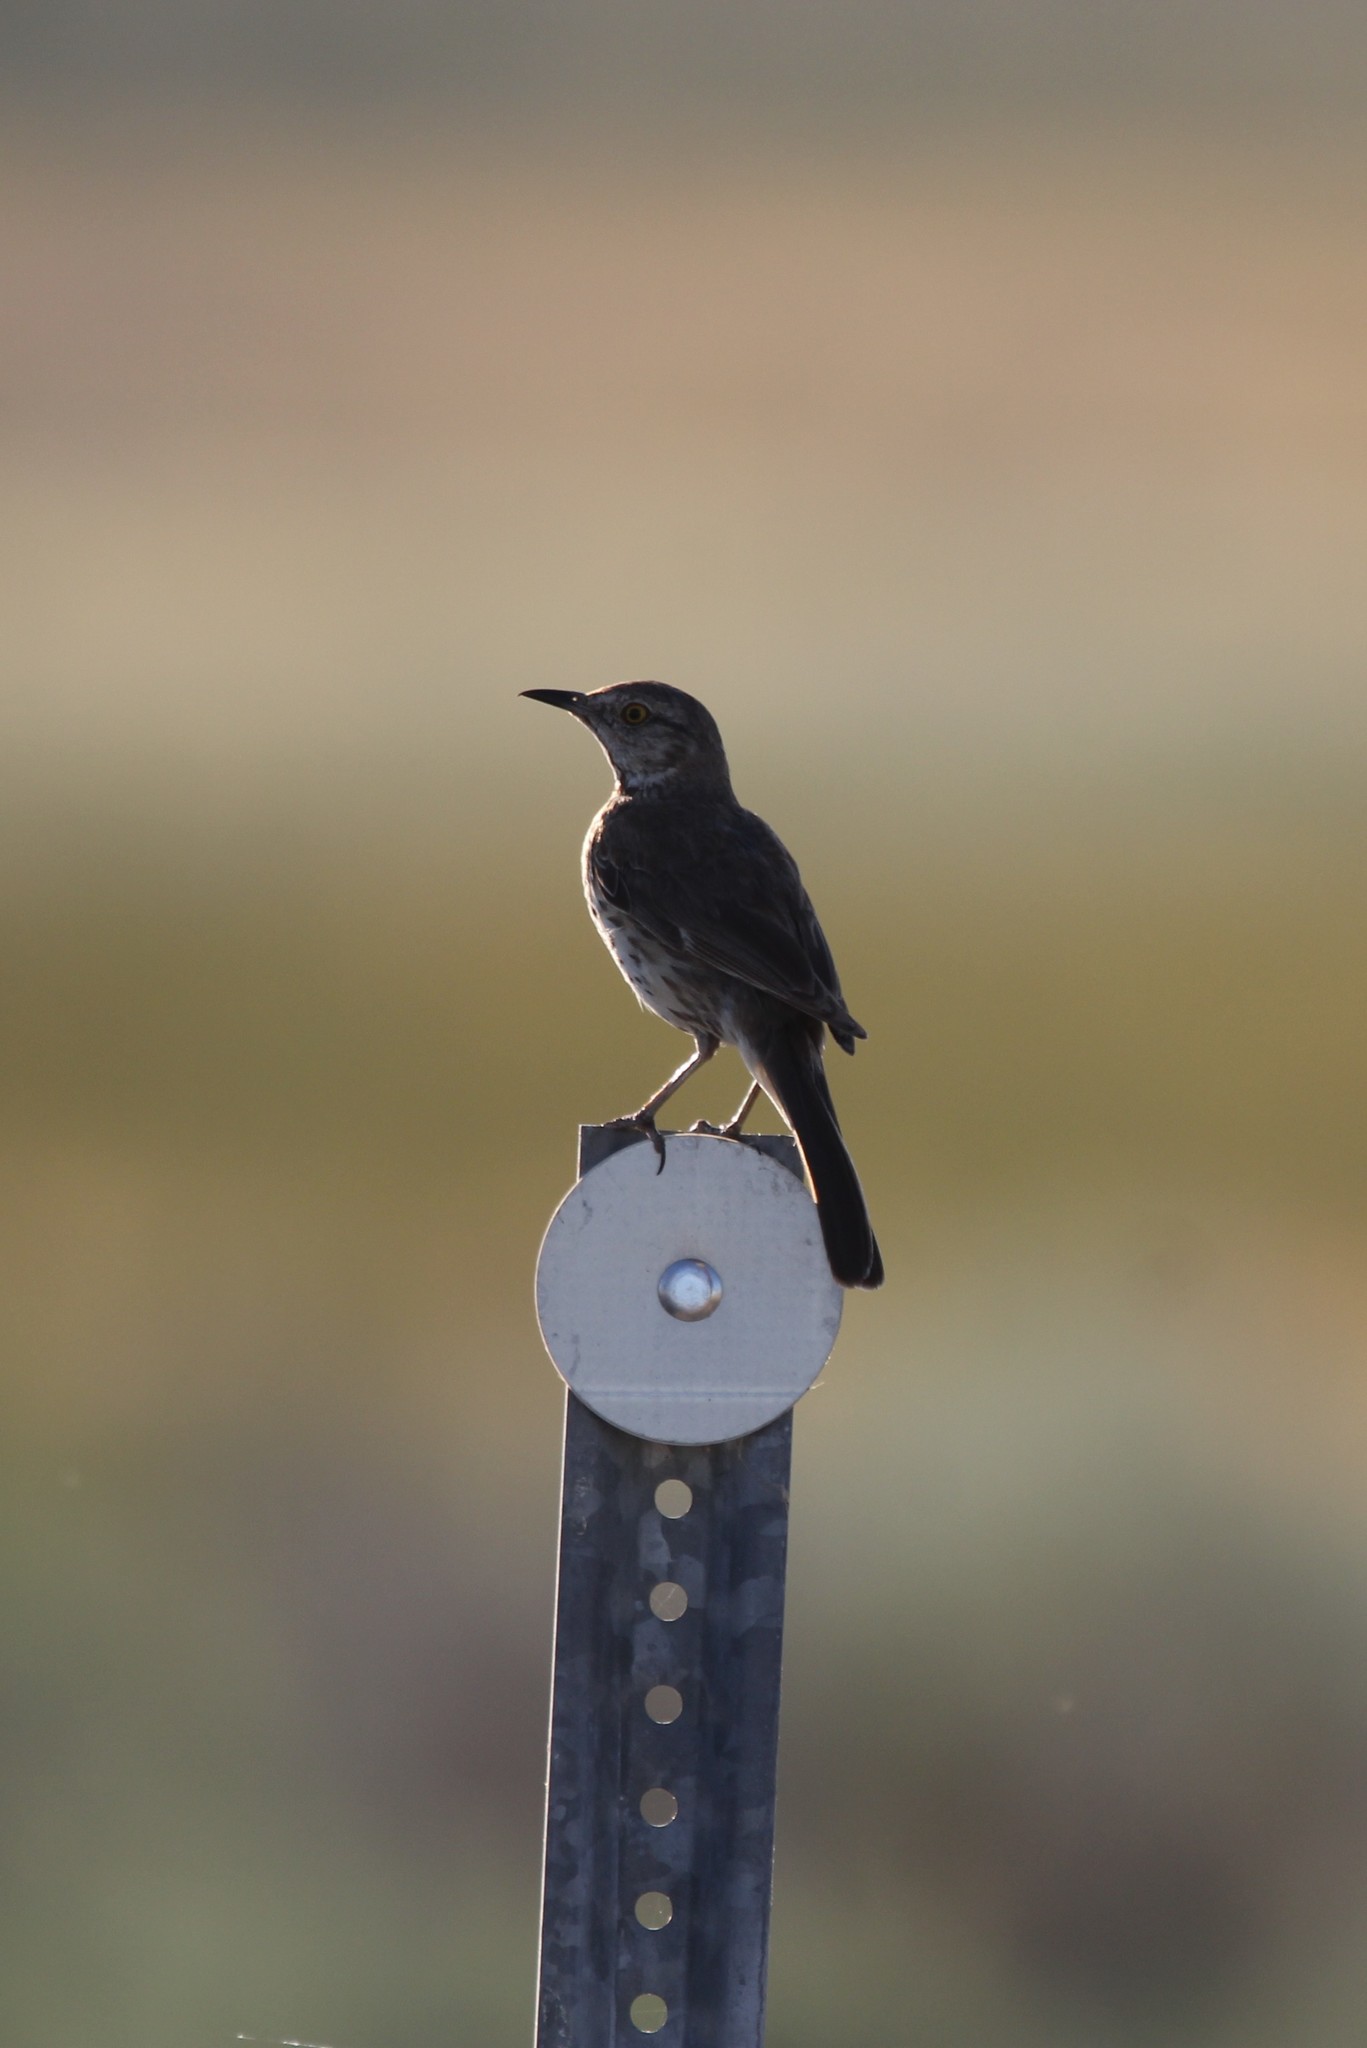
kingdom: Animalia
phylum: Chordata
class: Aves
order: Passeriformes
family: Mimidae
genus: Oreoscoptes
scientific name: Oreoscoptes montanus
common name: Sage thrasher
